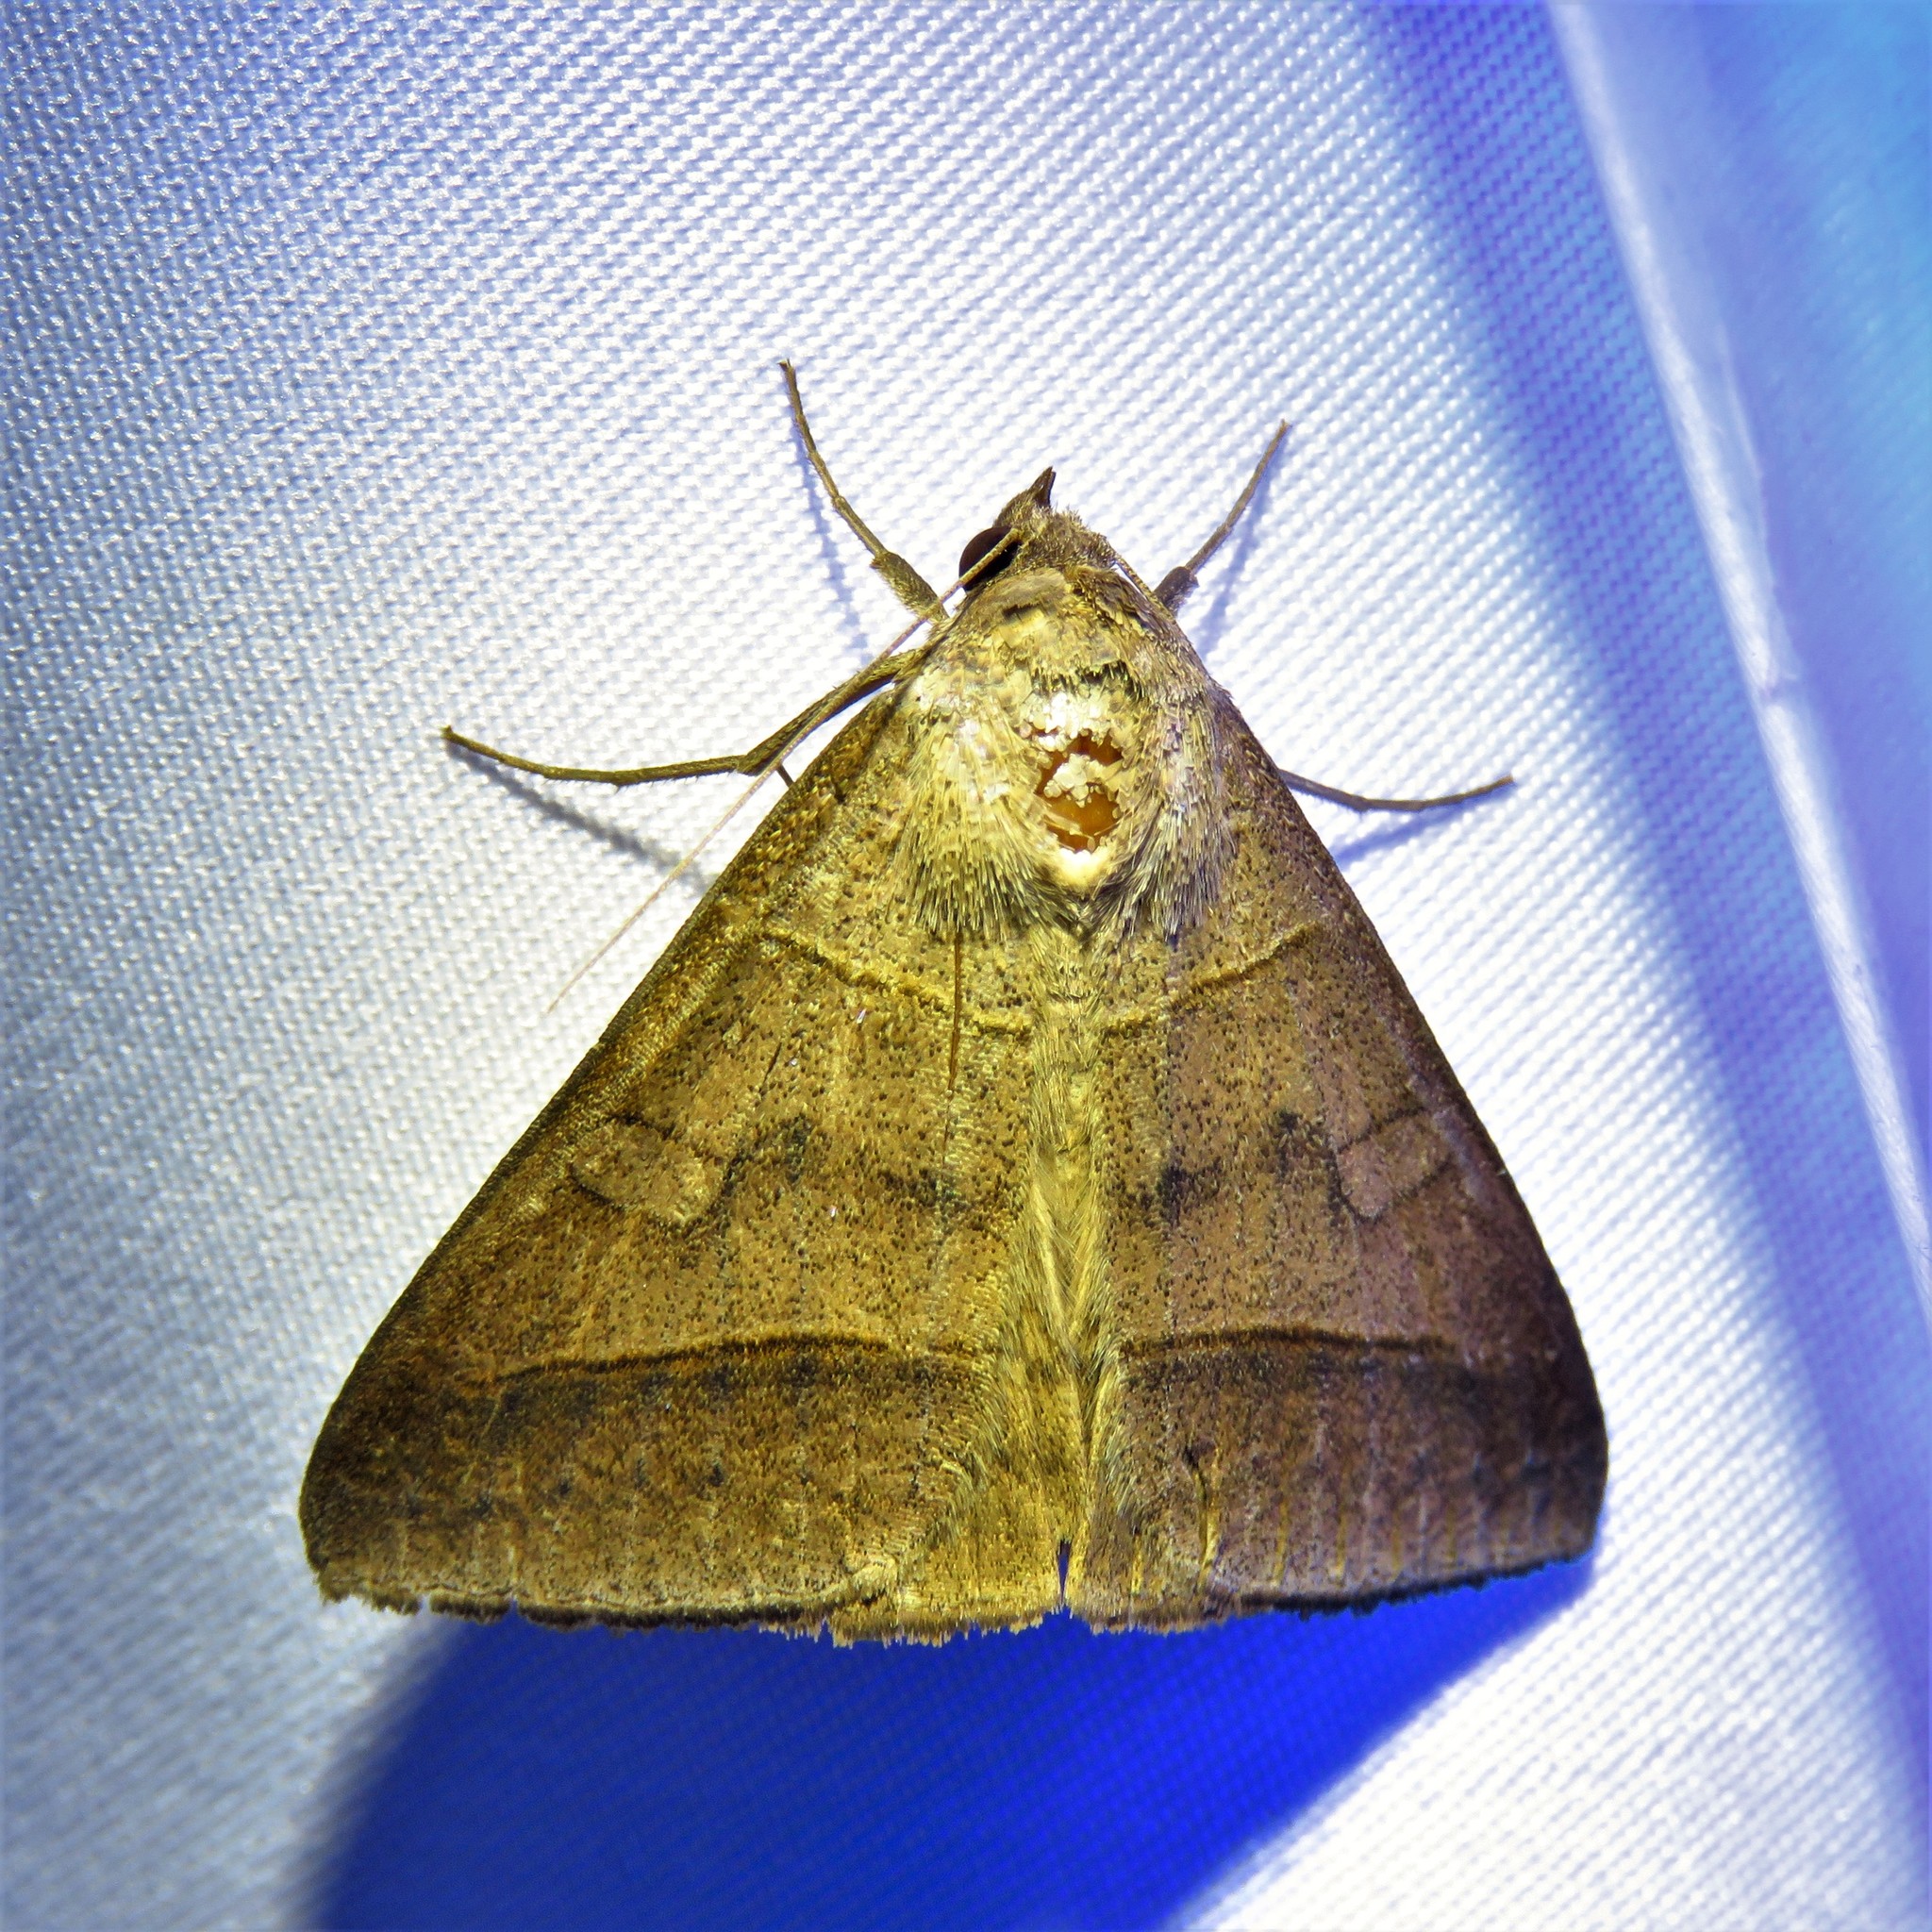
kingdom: Animalia
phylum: Arthropoda
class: Insecta
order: Lepidoptera
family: Erebidae
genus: Mocis
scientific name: Mocis texana
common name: Texas mocis moth
